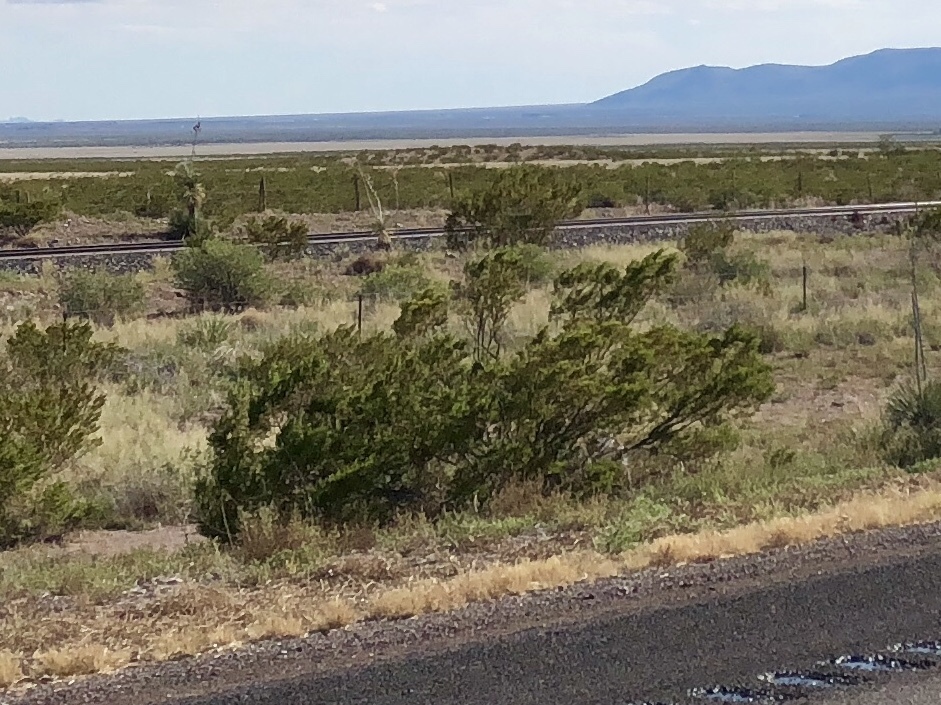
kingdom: Plantae
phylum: Tracheophyta
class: Magnoliopsida
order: Zygophyllales
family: Zygophyllaceae
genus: Larrea
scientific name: Larrea tridentata
